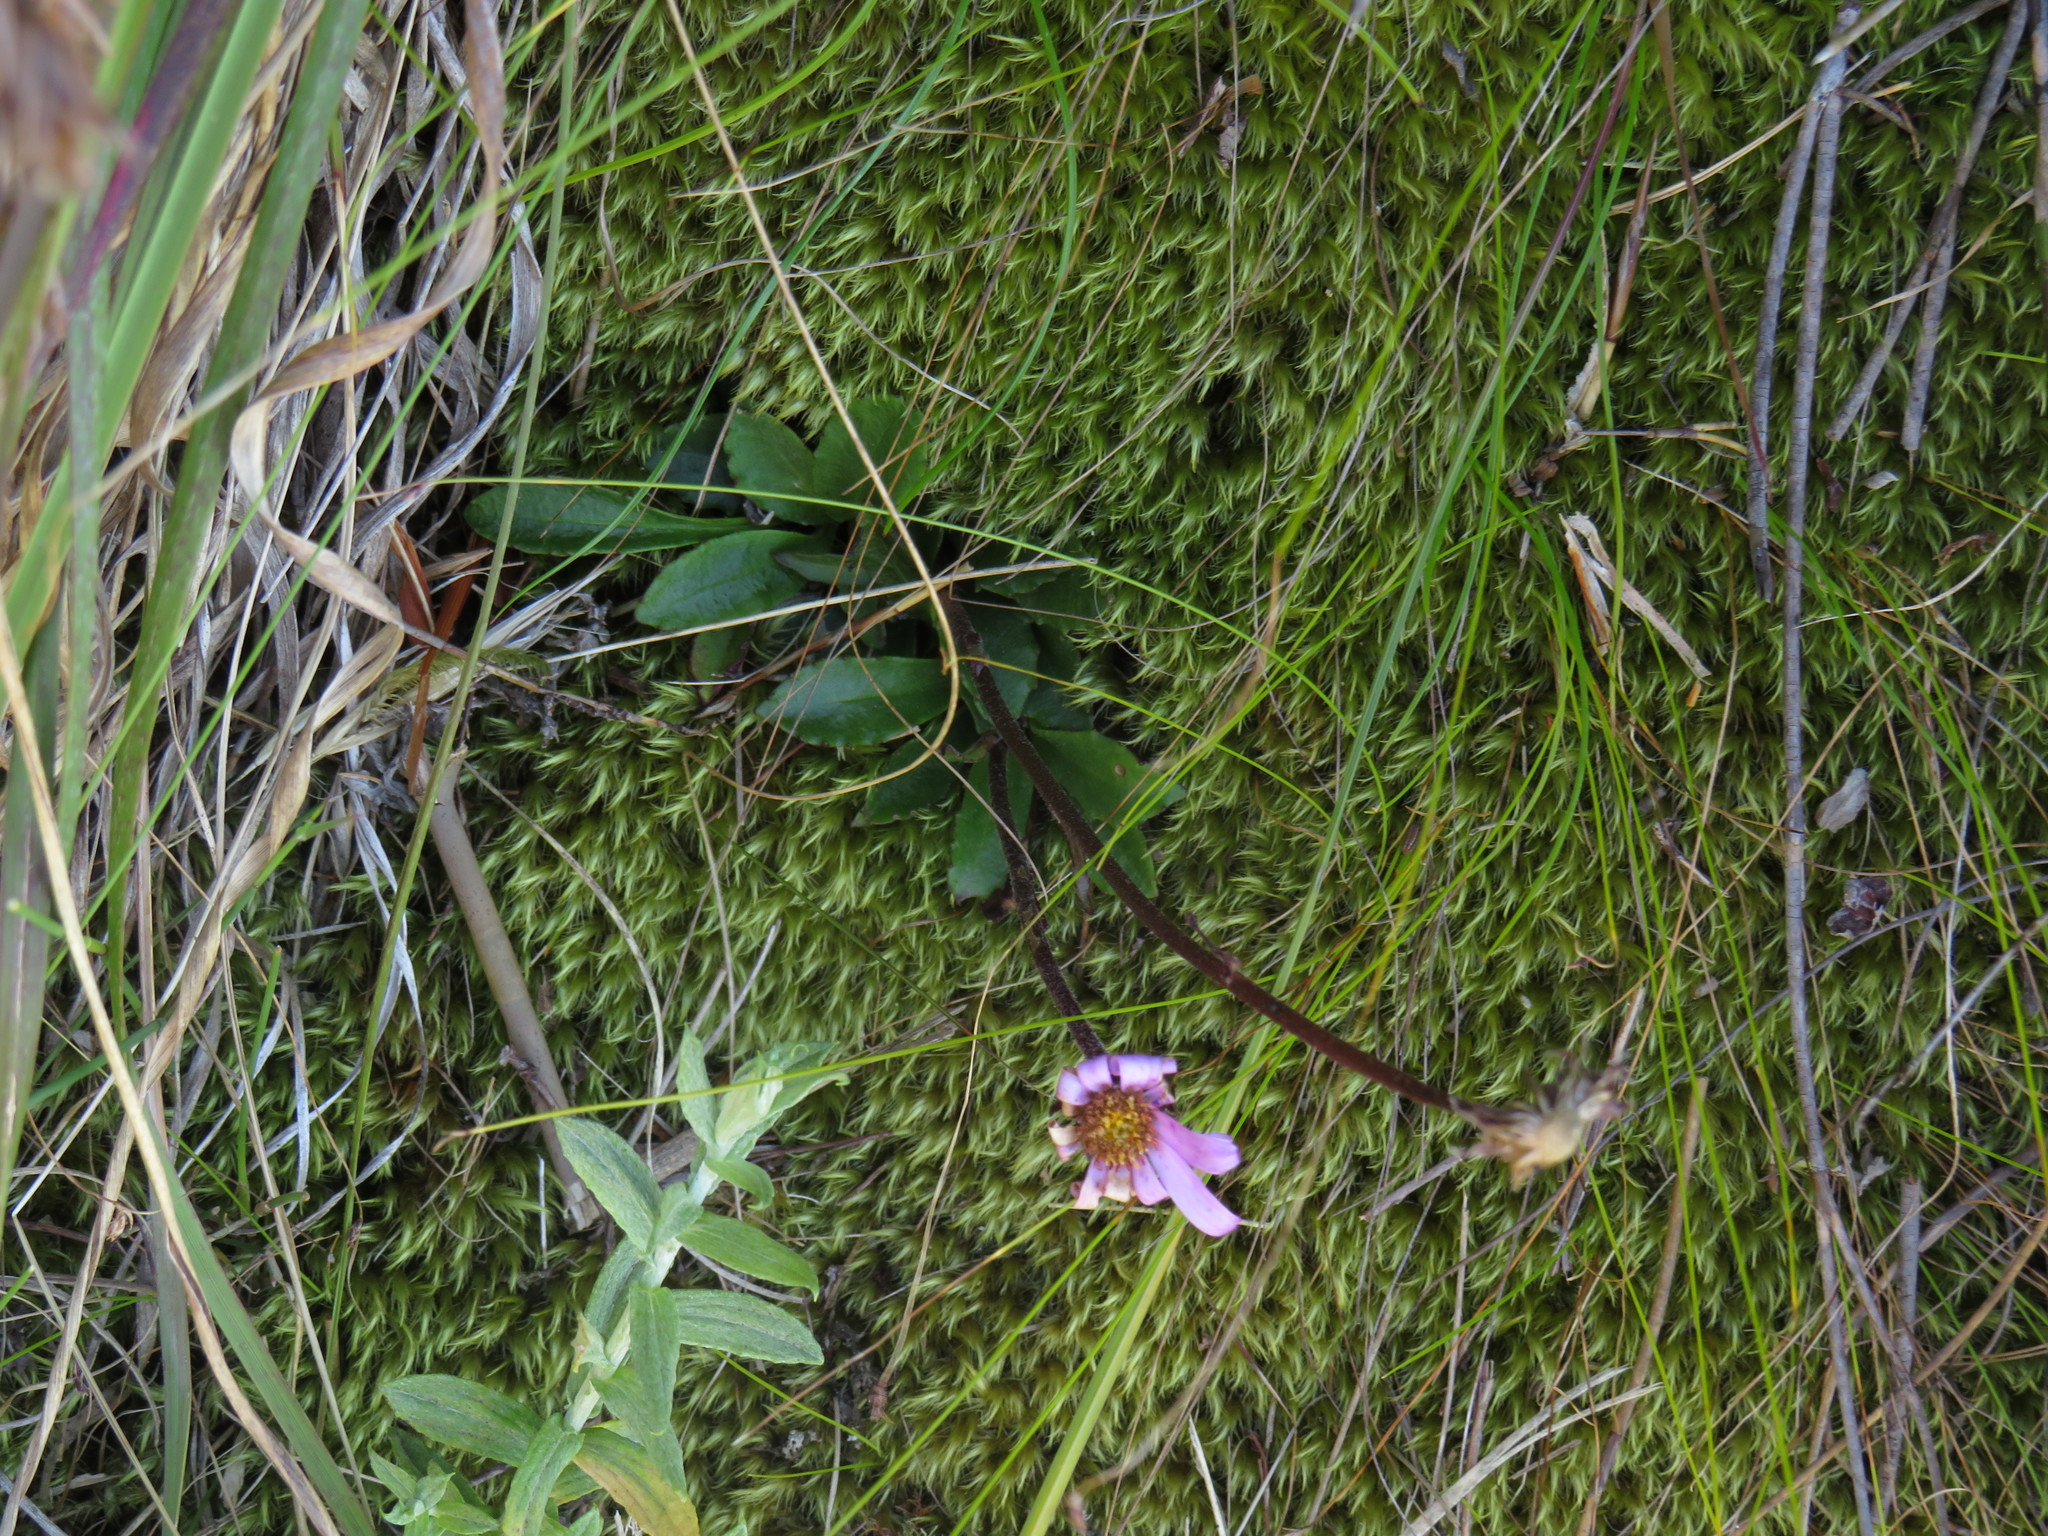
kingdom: Plantae
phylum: Tracheophyta
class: Magnoliopsida
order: Asterales
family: Asteraceae
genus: Zyrphelis
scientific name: Zyrphelis crenata
